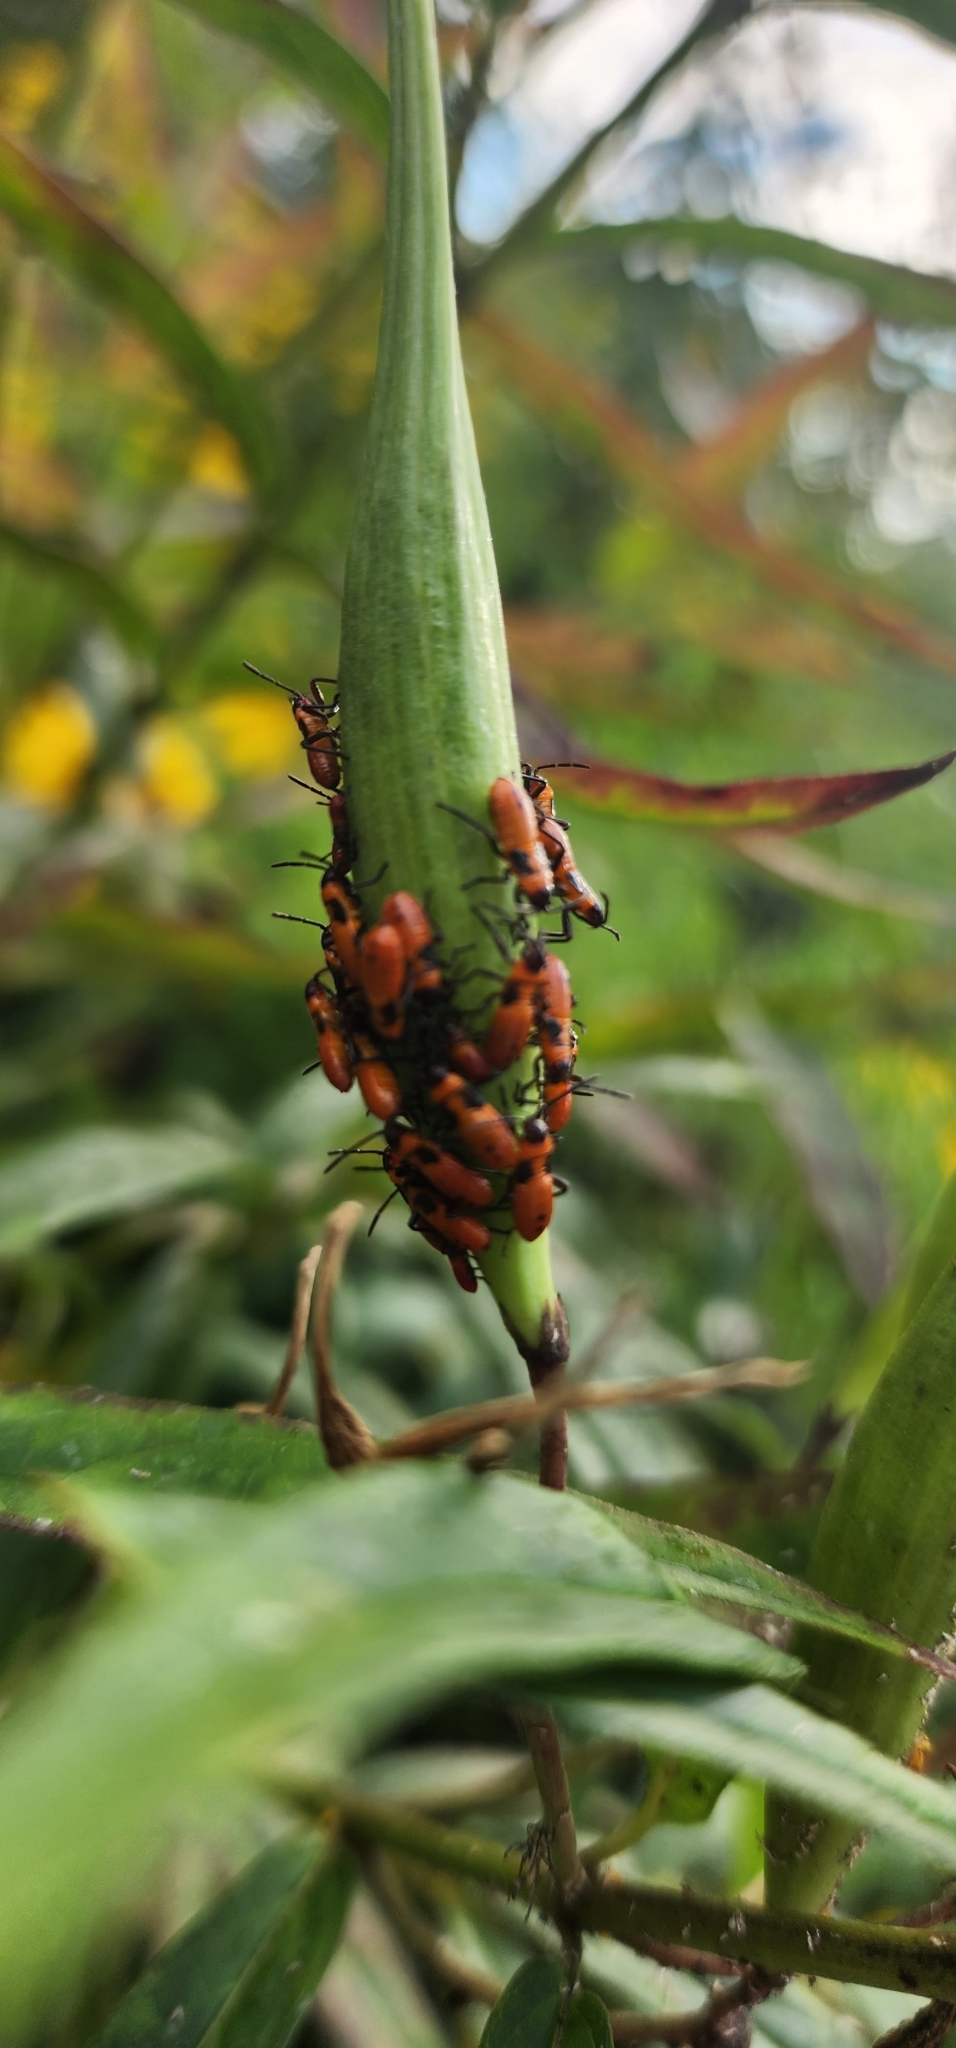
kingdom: Animalia
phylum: Arthropoda
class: Insecta
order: Hemiptera
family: Lygaeidae
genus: Oncopeltus
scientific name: Oncopeltus fasciatus
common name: Large milkweed bug
